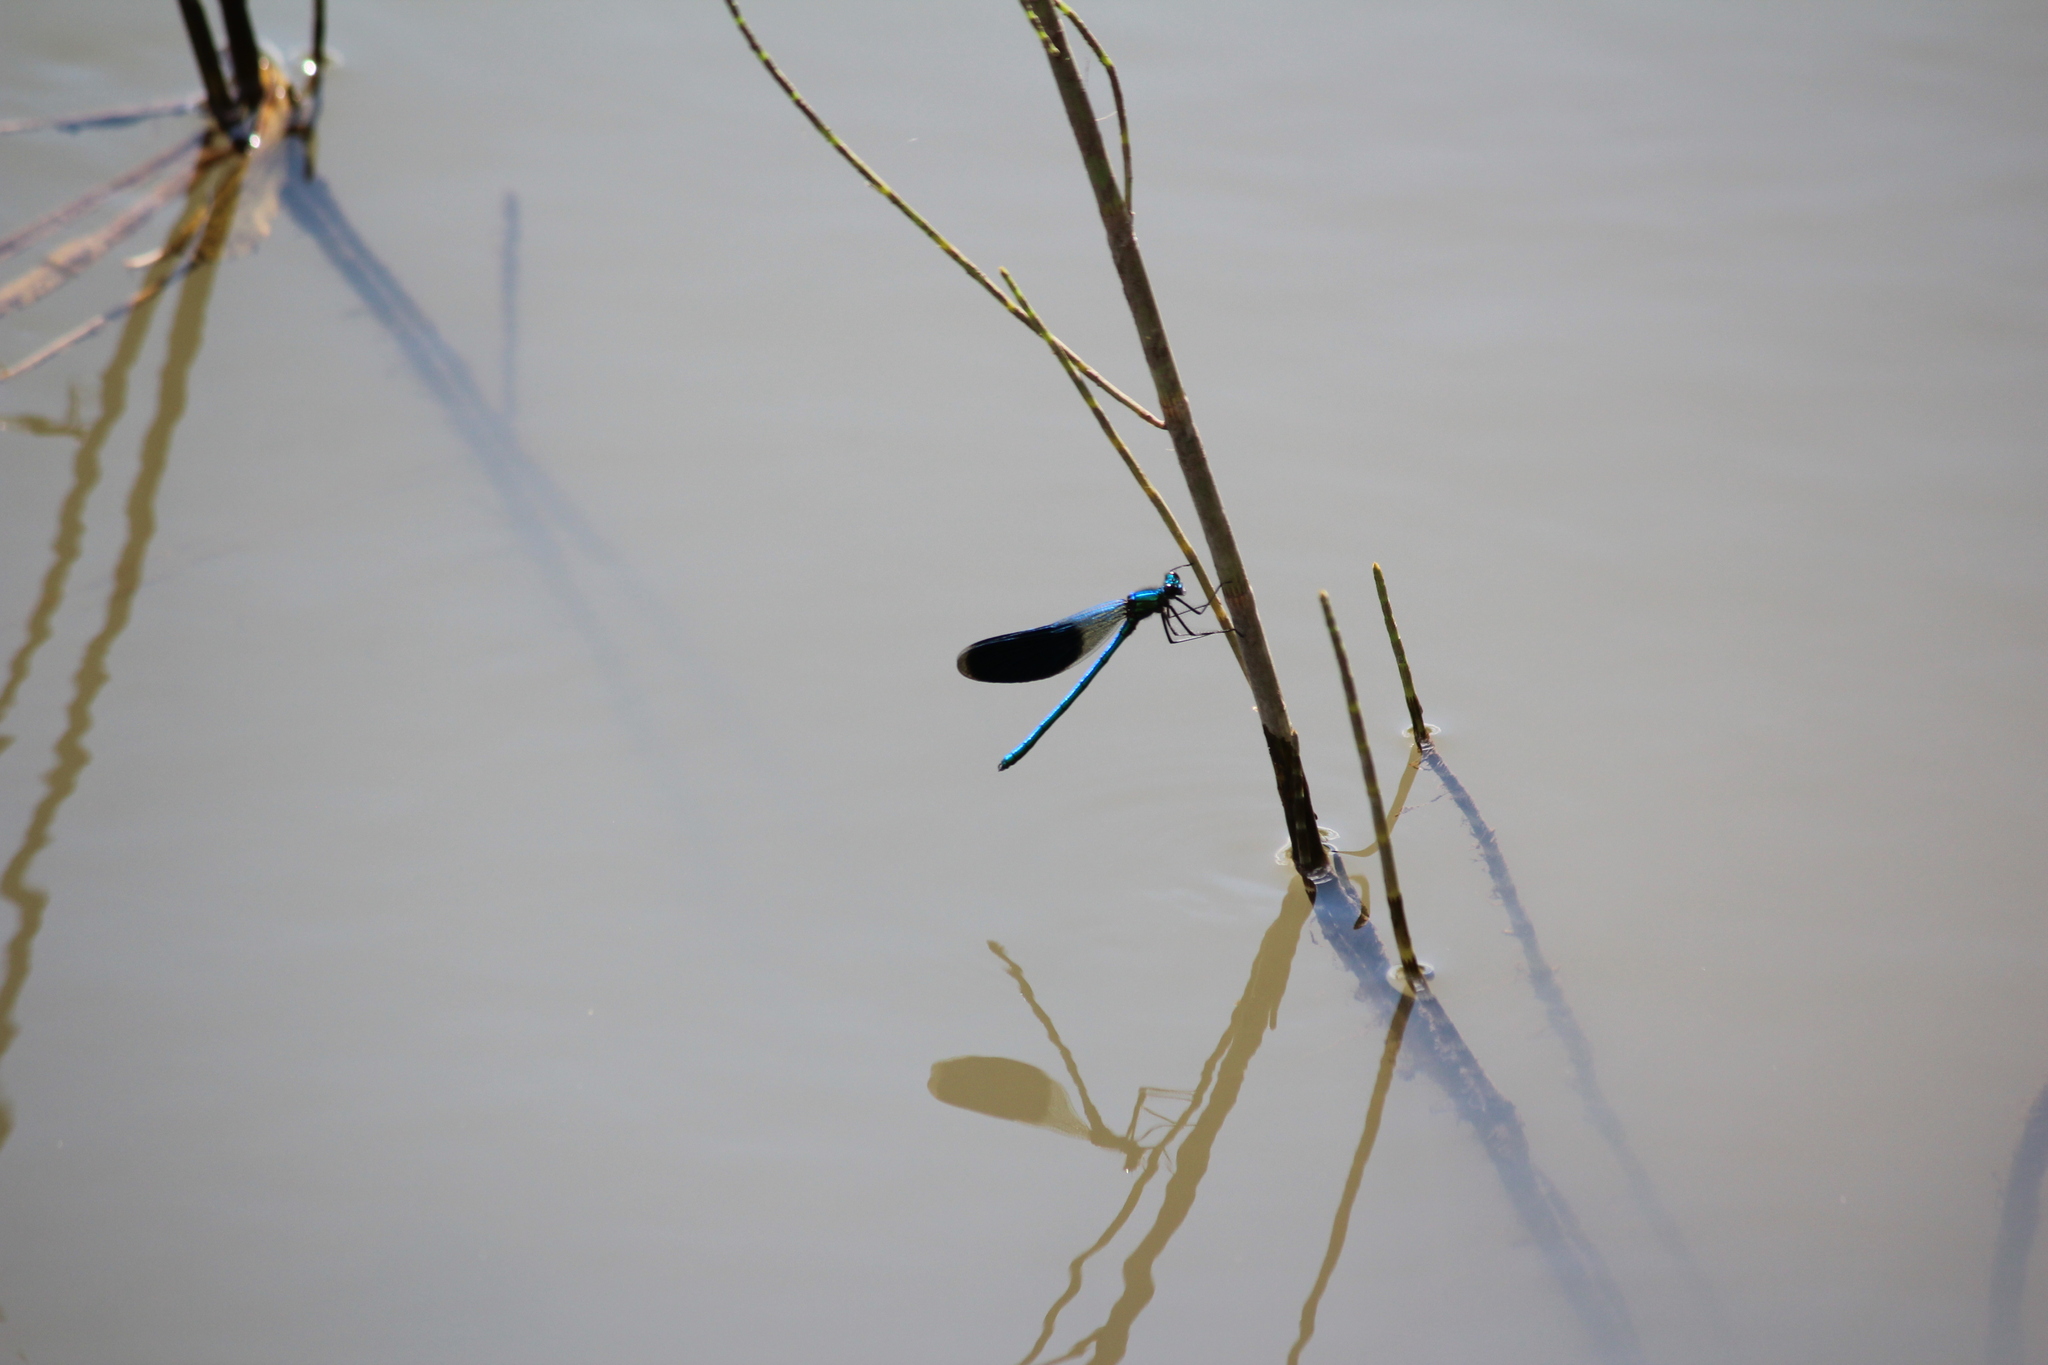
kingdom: Animalia
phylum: Arthropoda
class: Insecta
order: Odonata
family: Calopterygidae
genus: Calopteryx
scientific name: Calopteryx splendens
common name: Banded demoiselle
